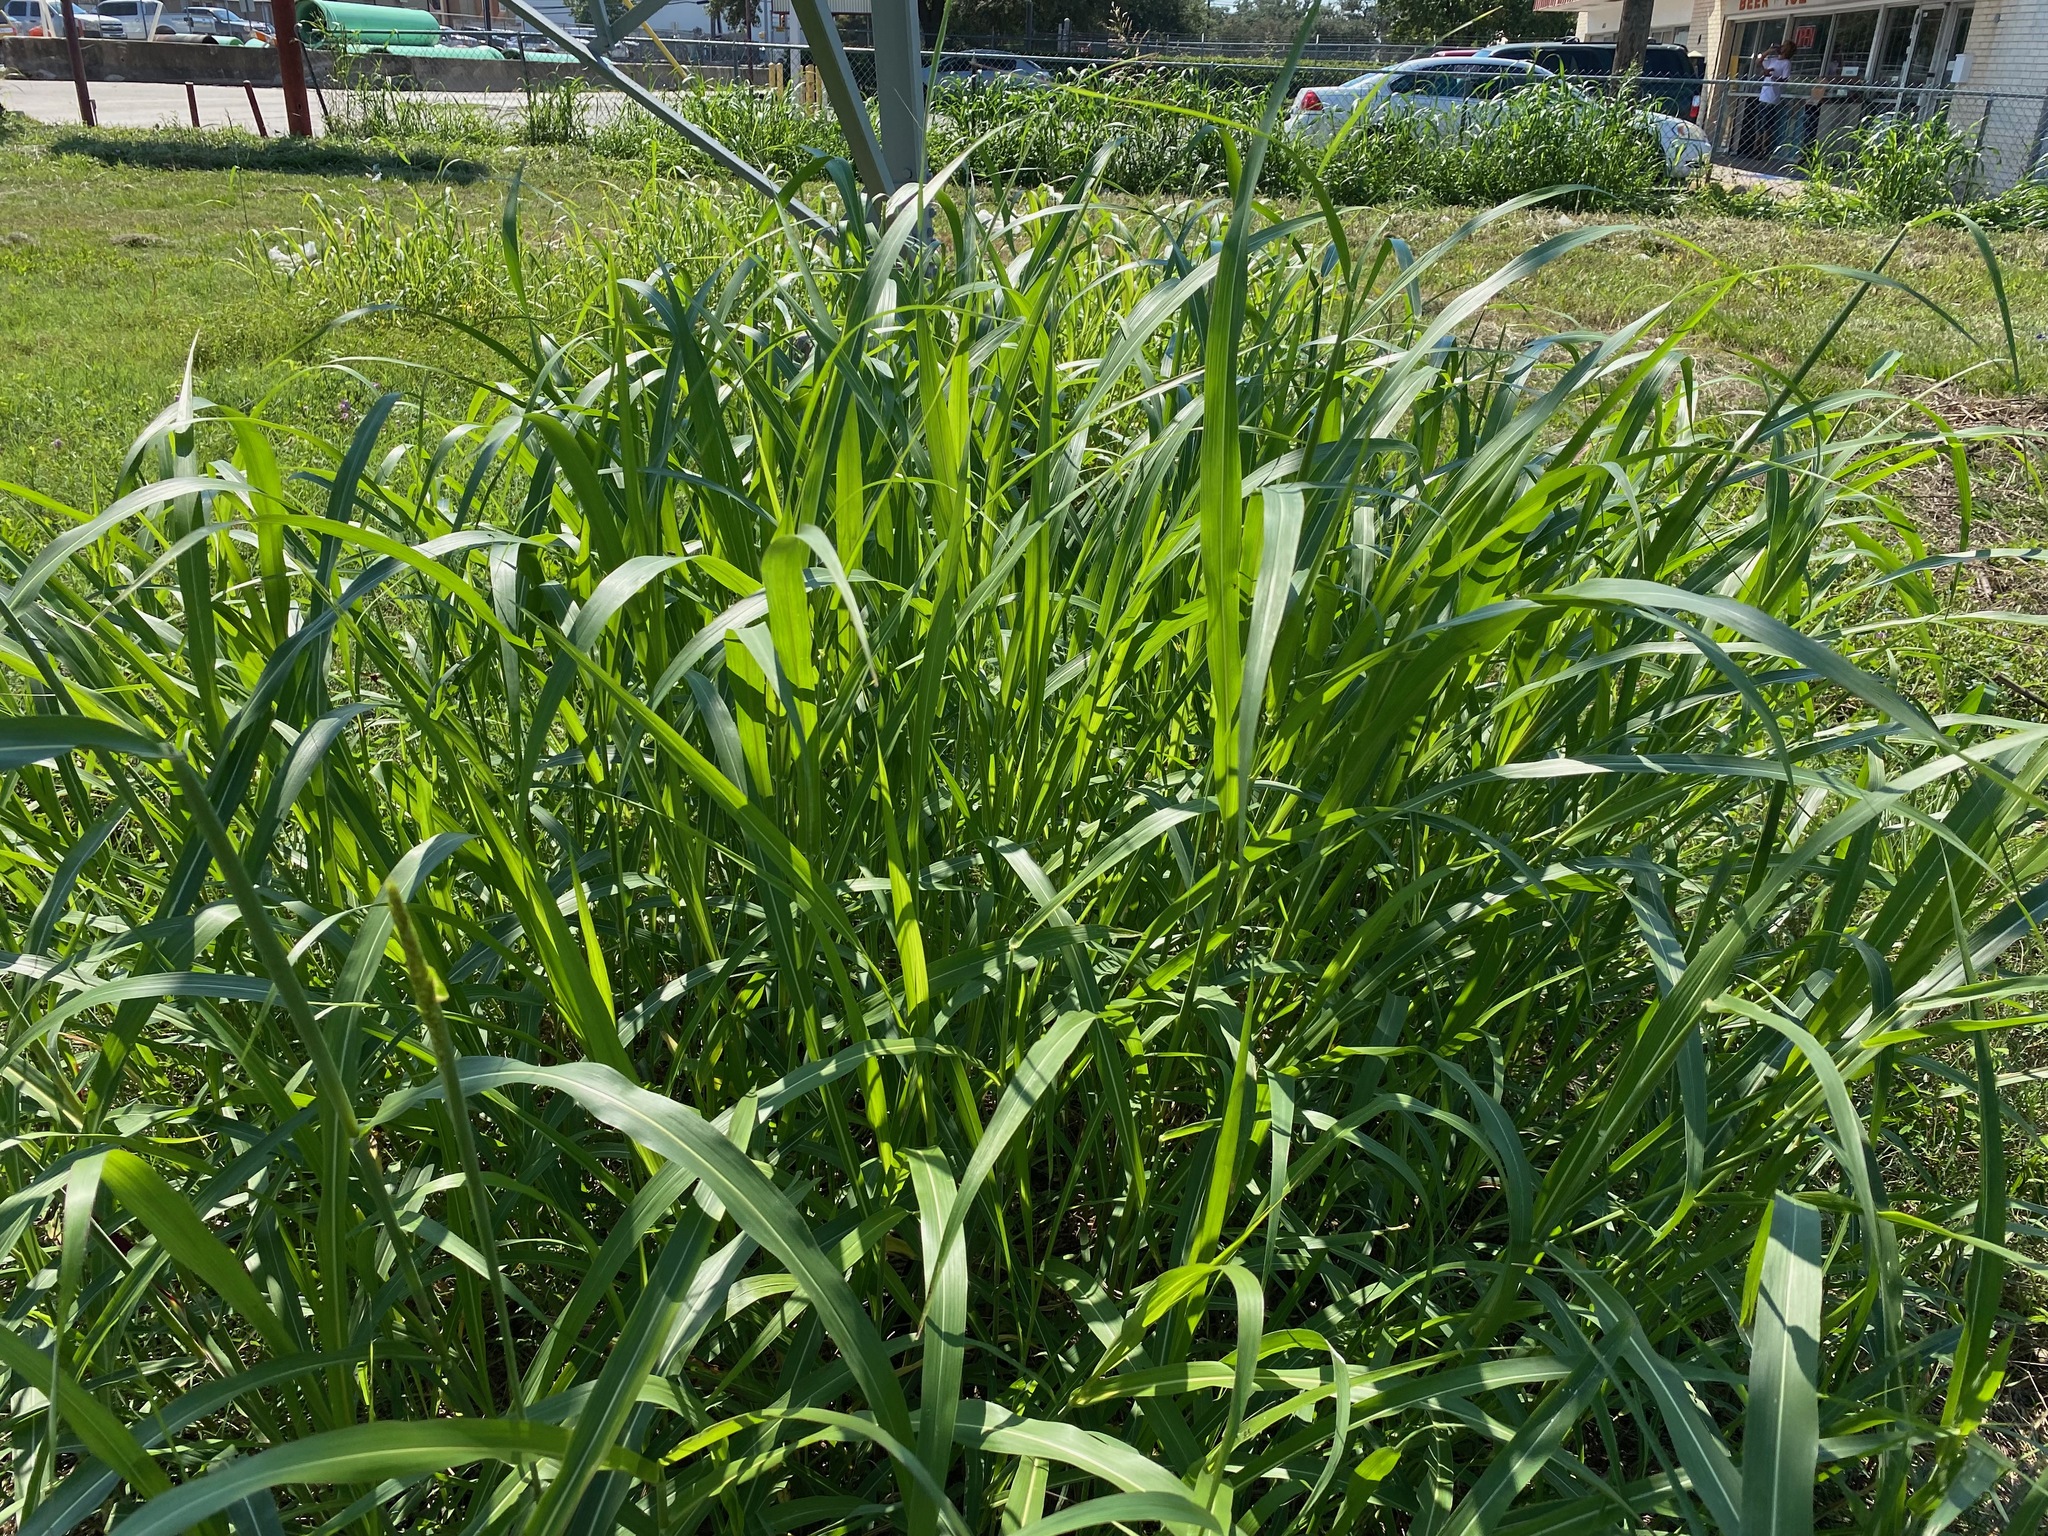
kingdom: Plantae
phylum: Tracheophyta
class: Liliopsida
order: Poales
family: Poaceae
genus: Sorghum
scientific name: Sorghum halepense
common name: Johnson-grass
